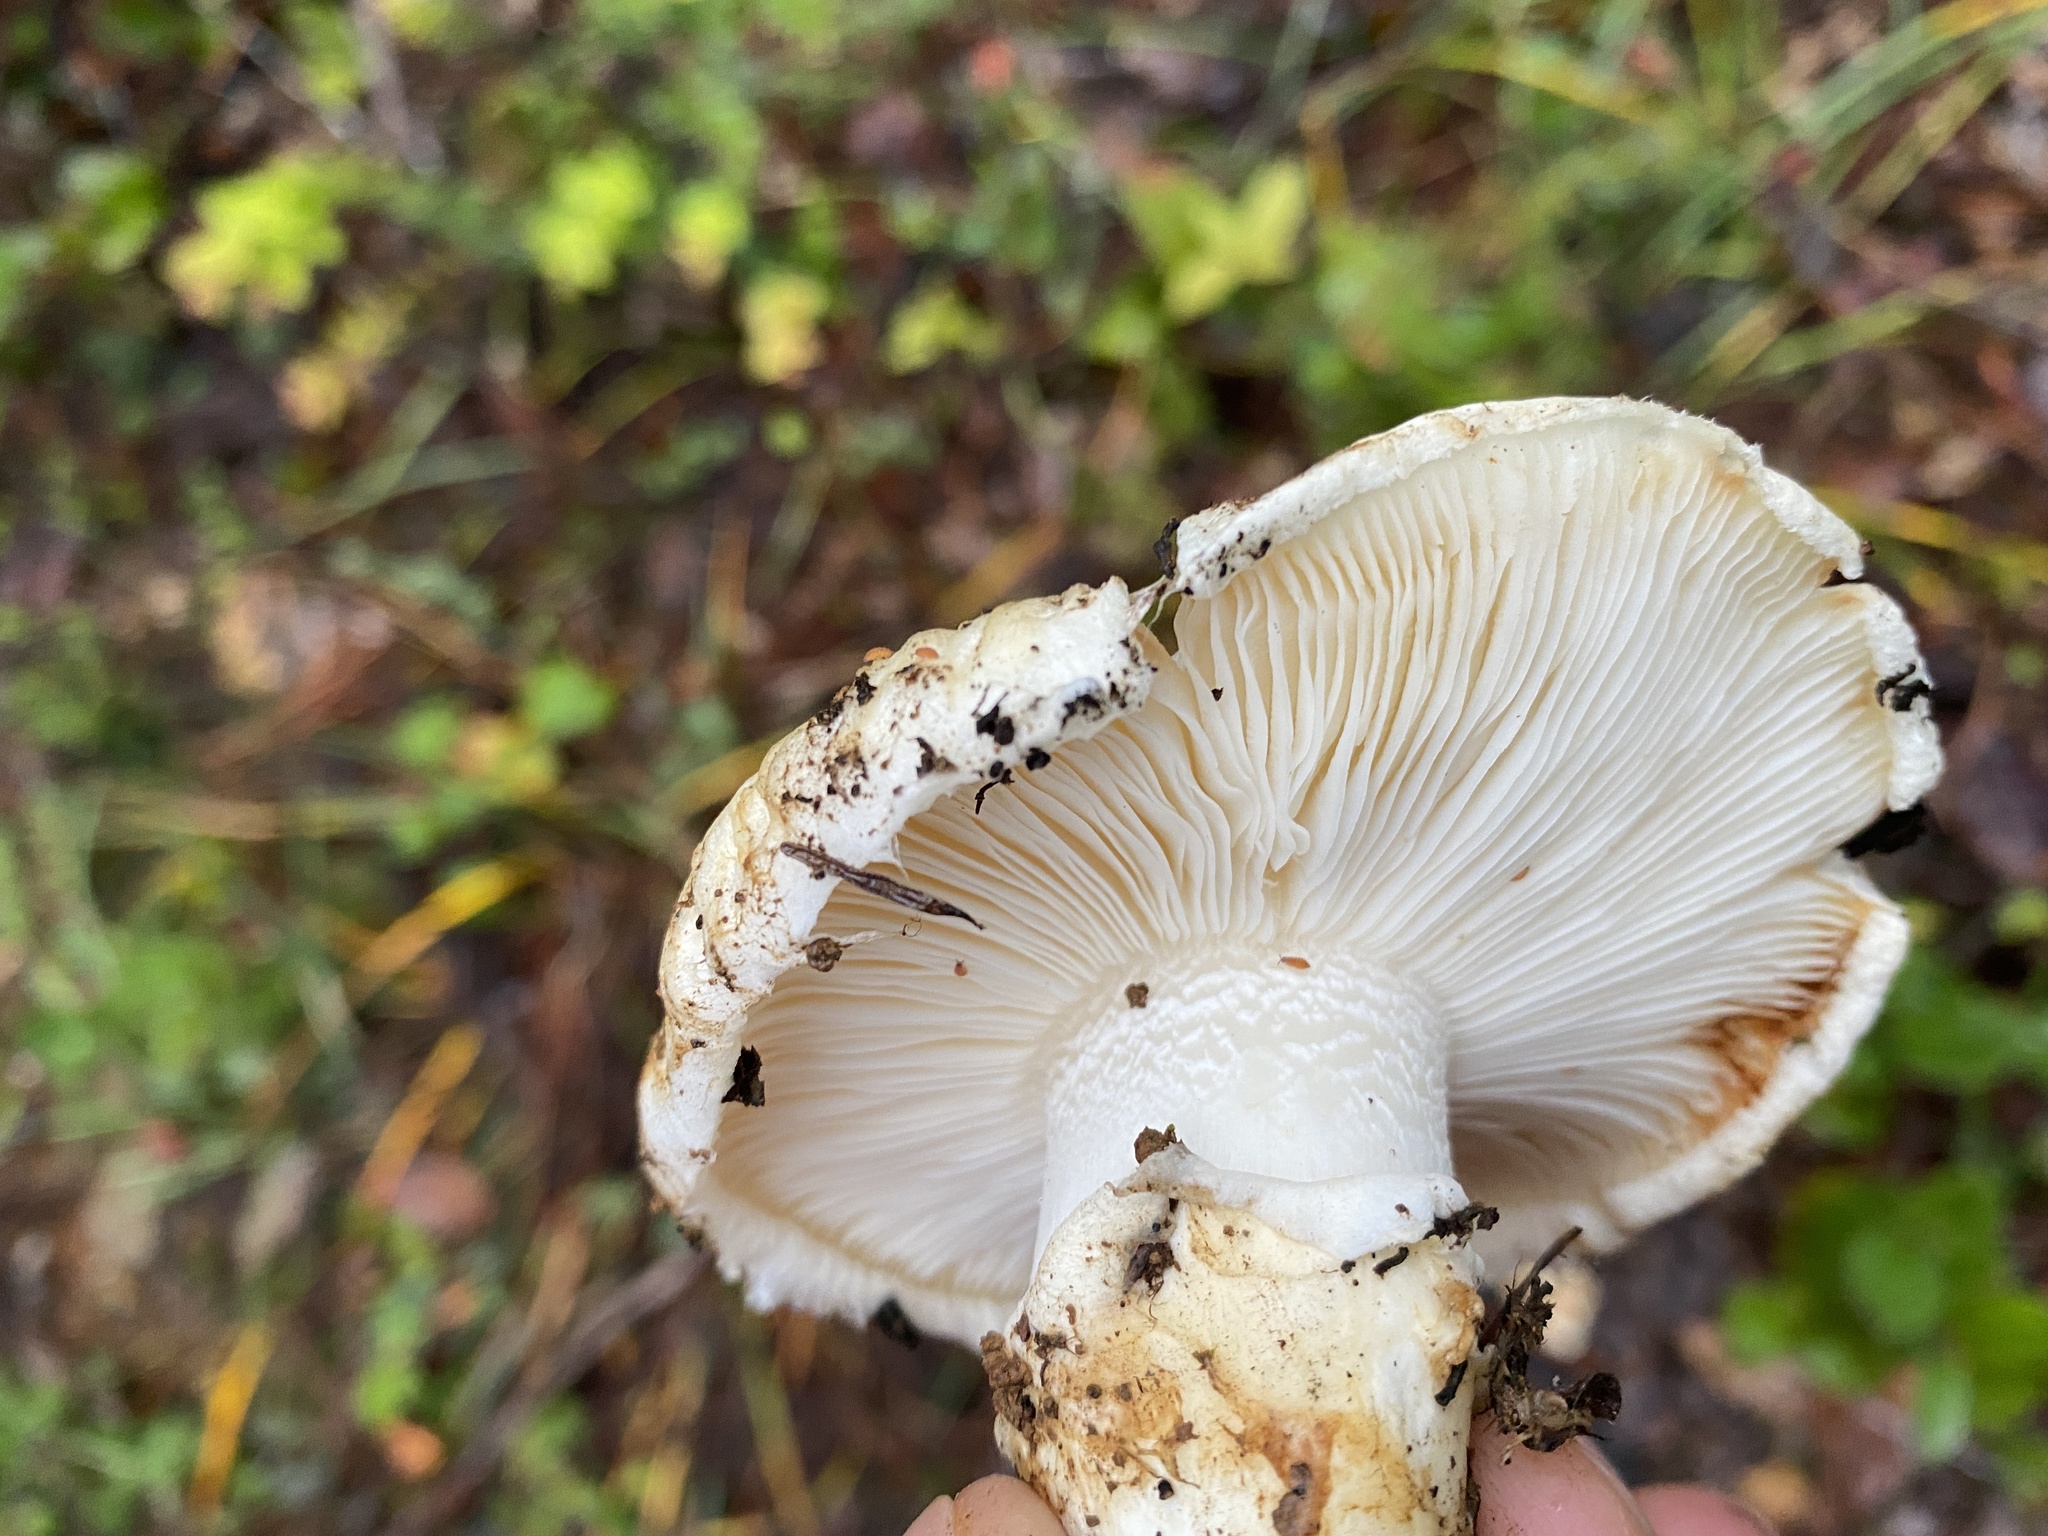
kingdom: Fungi
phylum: Basidiomycota
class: Agaricomycetes
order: Agaricales
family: Tricholomataceae
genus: Tricholoma
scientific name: Tricholoma murrillianum
